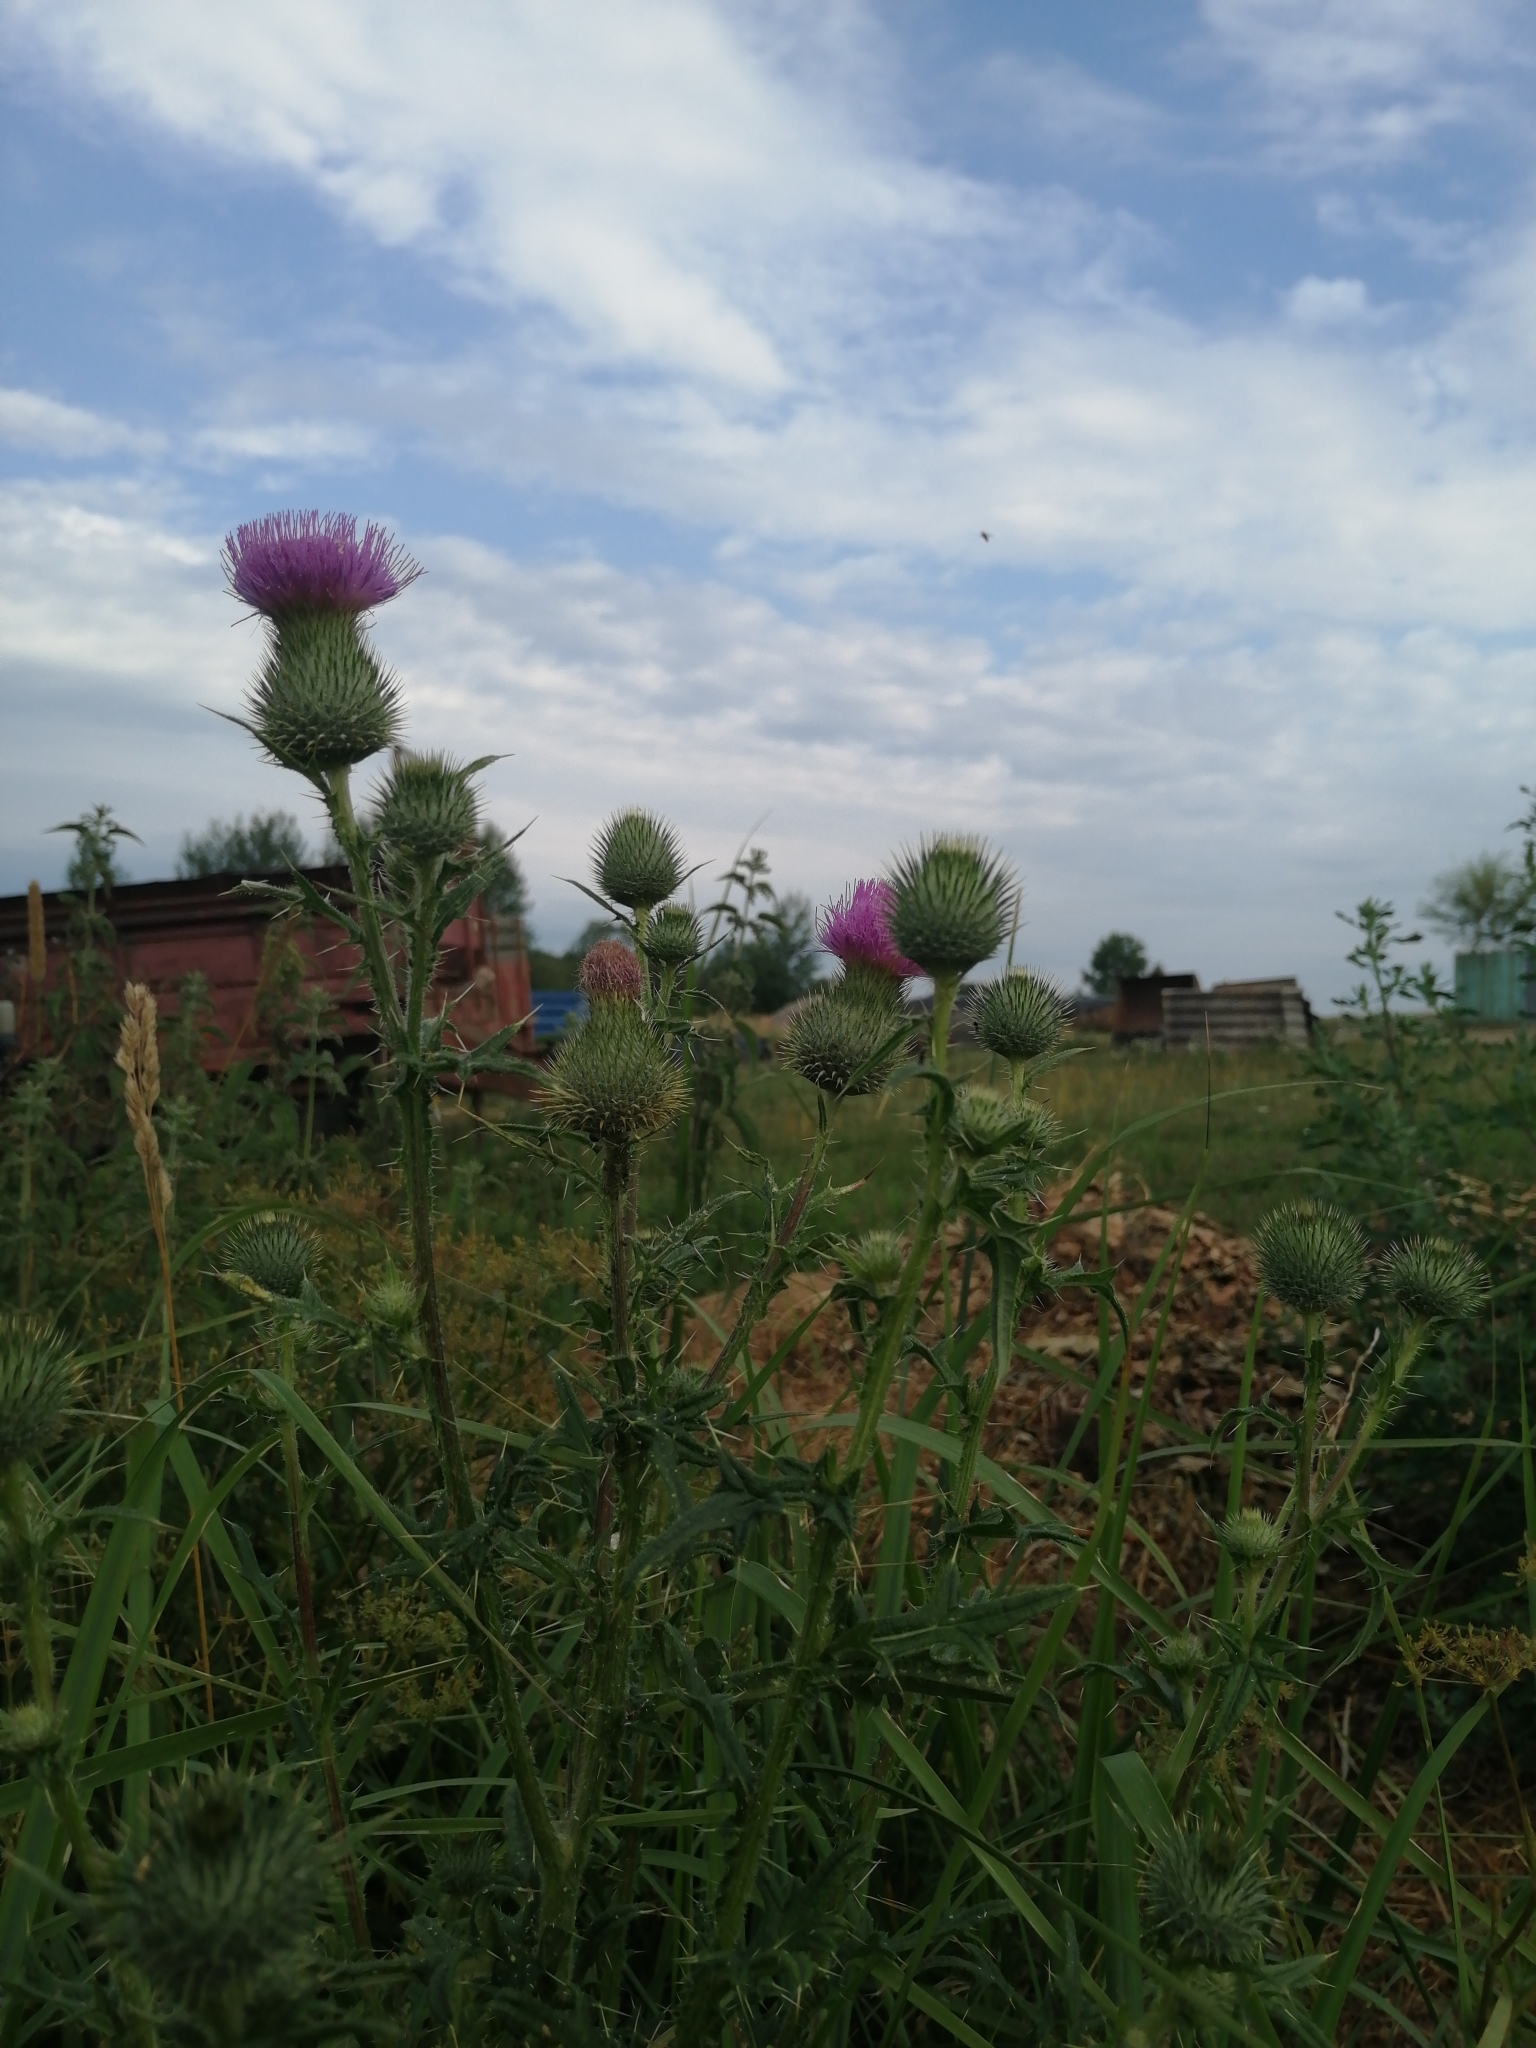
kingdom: Plantae
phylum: Tracheophyta
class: Magnoliopsida
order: Asterales
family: Asteraceae
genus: Cirsium
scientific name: Cirsium vulgare
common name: Bull thistle
